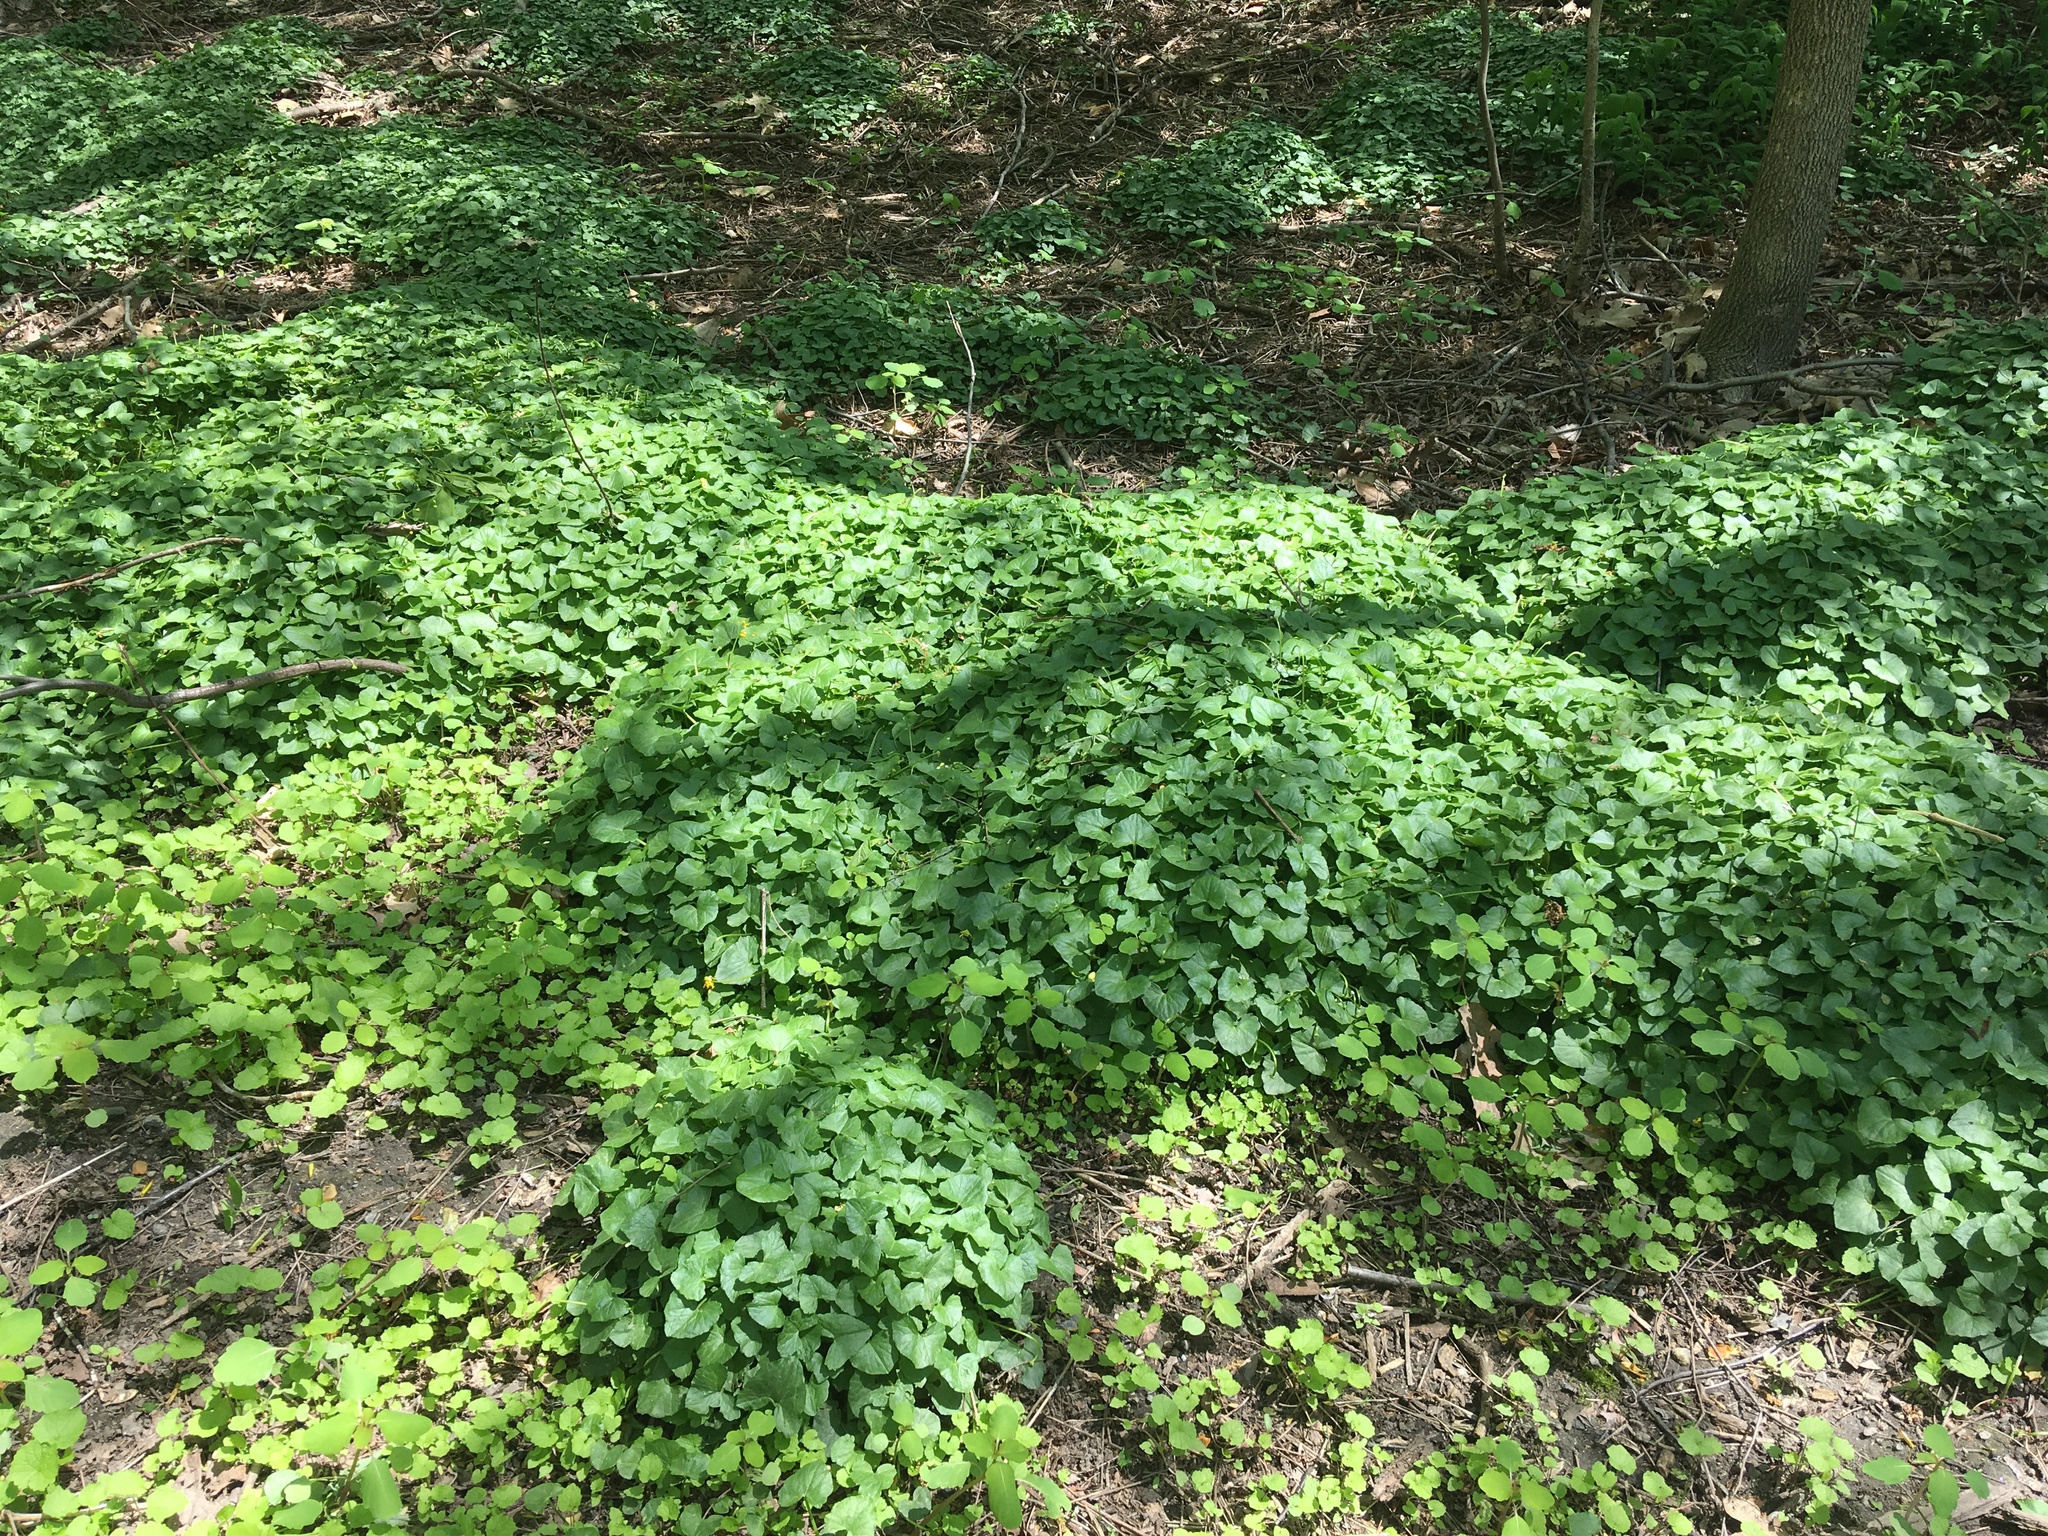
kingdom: Plantae
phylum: Tracheophyta
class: Magnoliopsida
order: Ranunculales
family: Ranunculaceae
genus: Ficaria
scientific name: Ficaria verna
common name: Lesser celandine
